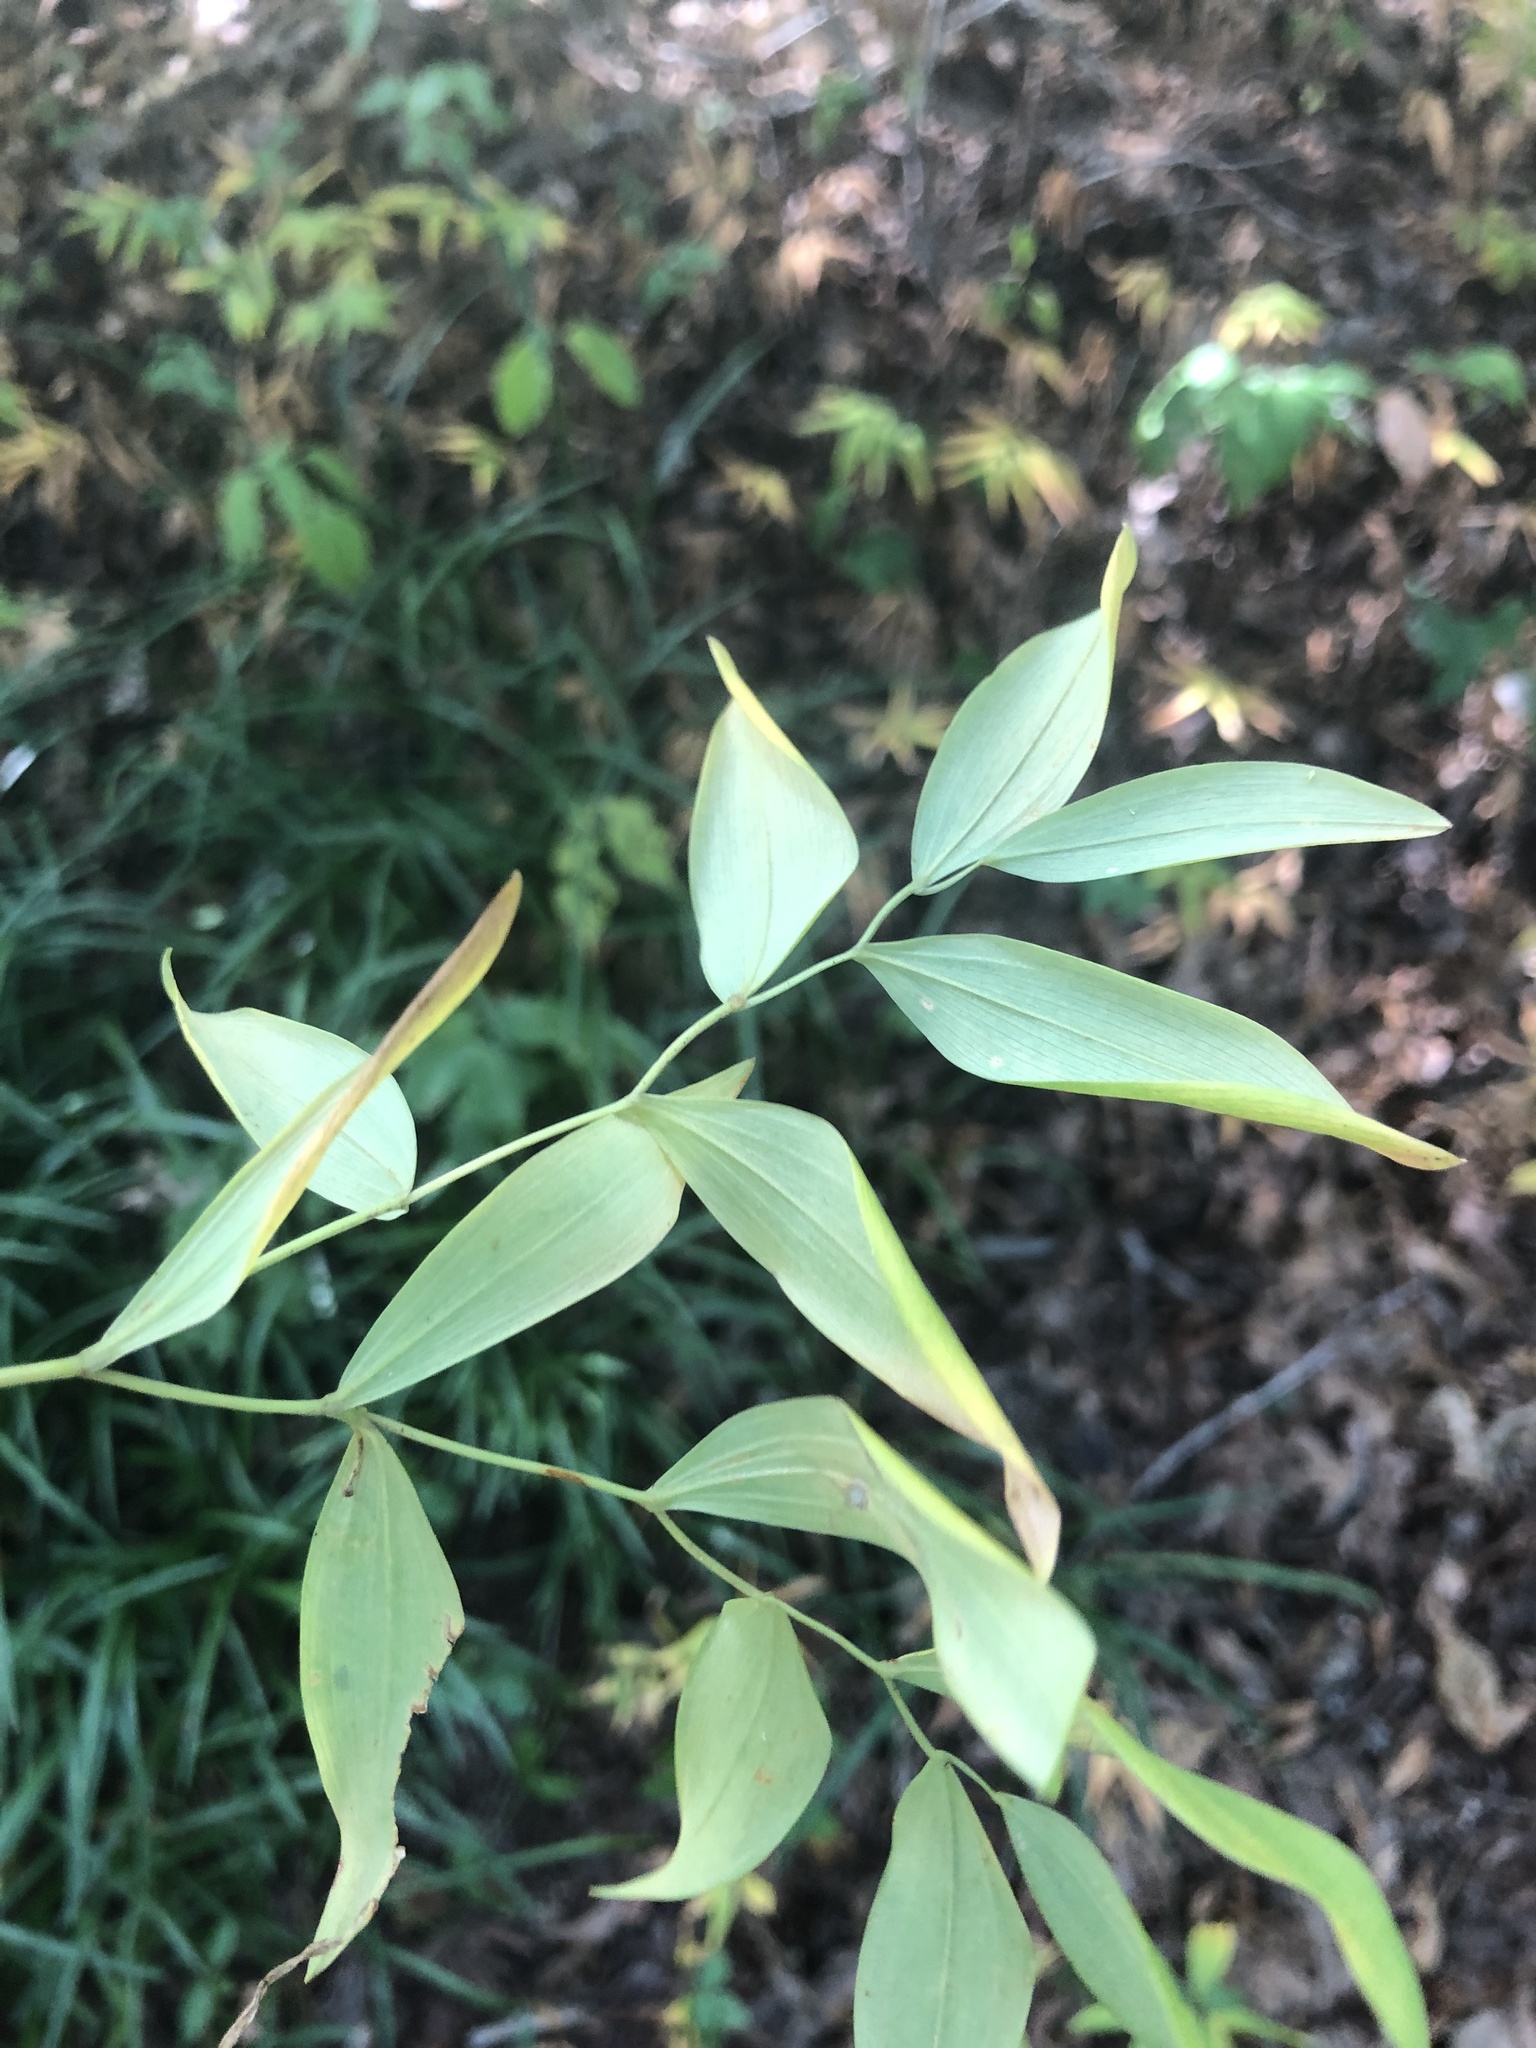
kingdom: Plantae
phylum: Tracheophyta
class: Liliopsida
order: Liliales
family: Colchicaceae
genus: Uvularia
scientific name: Uvularia sessilifolia
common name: Straw-lily
